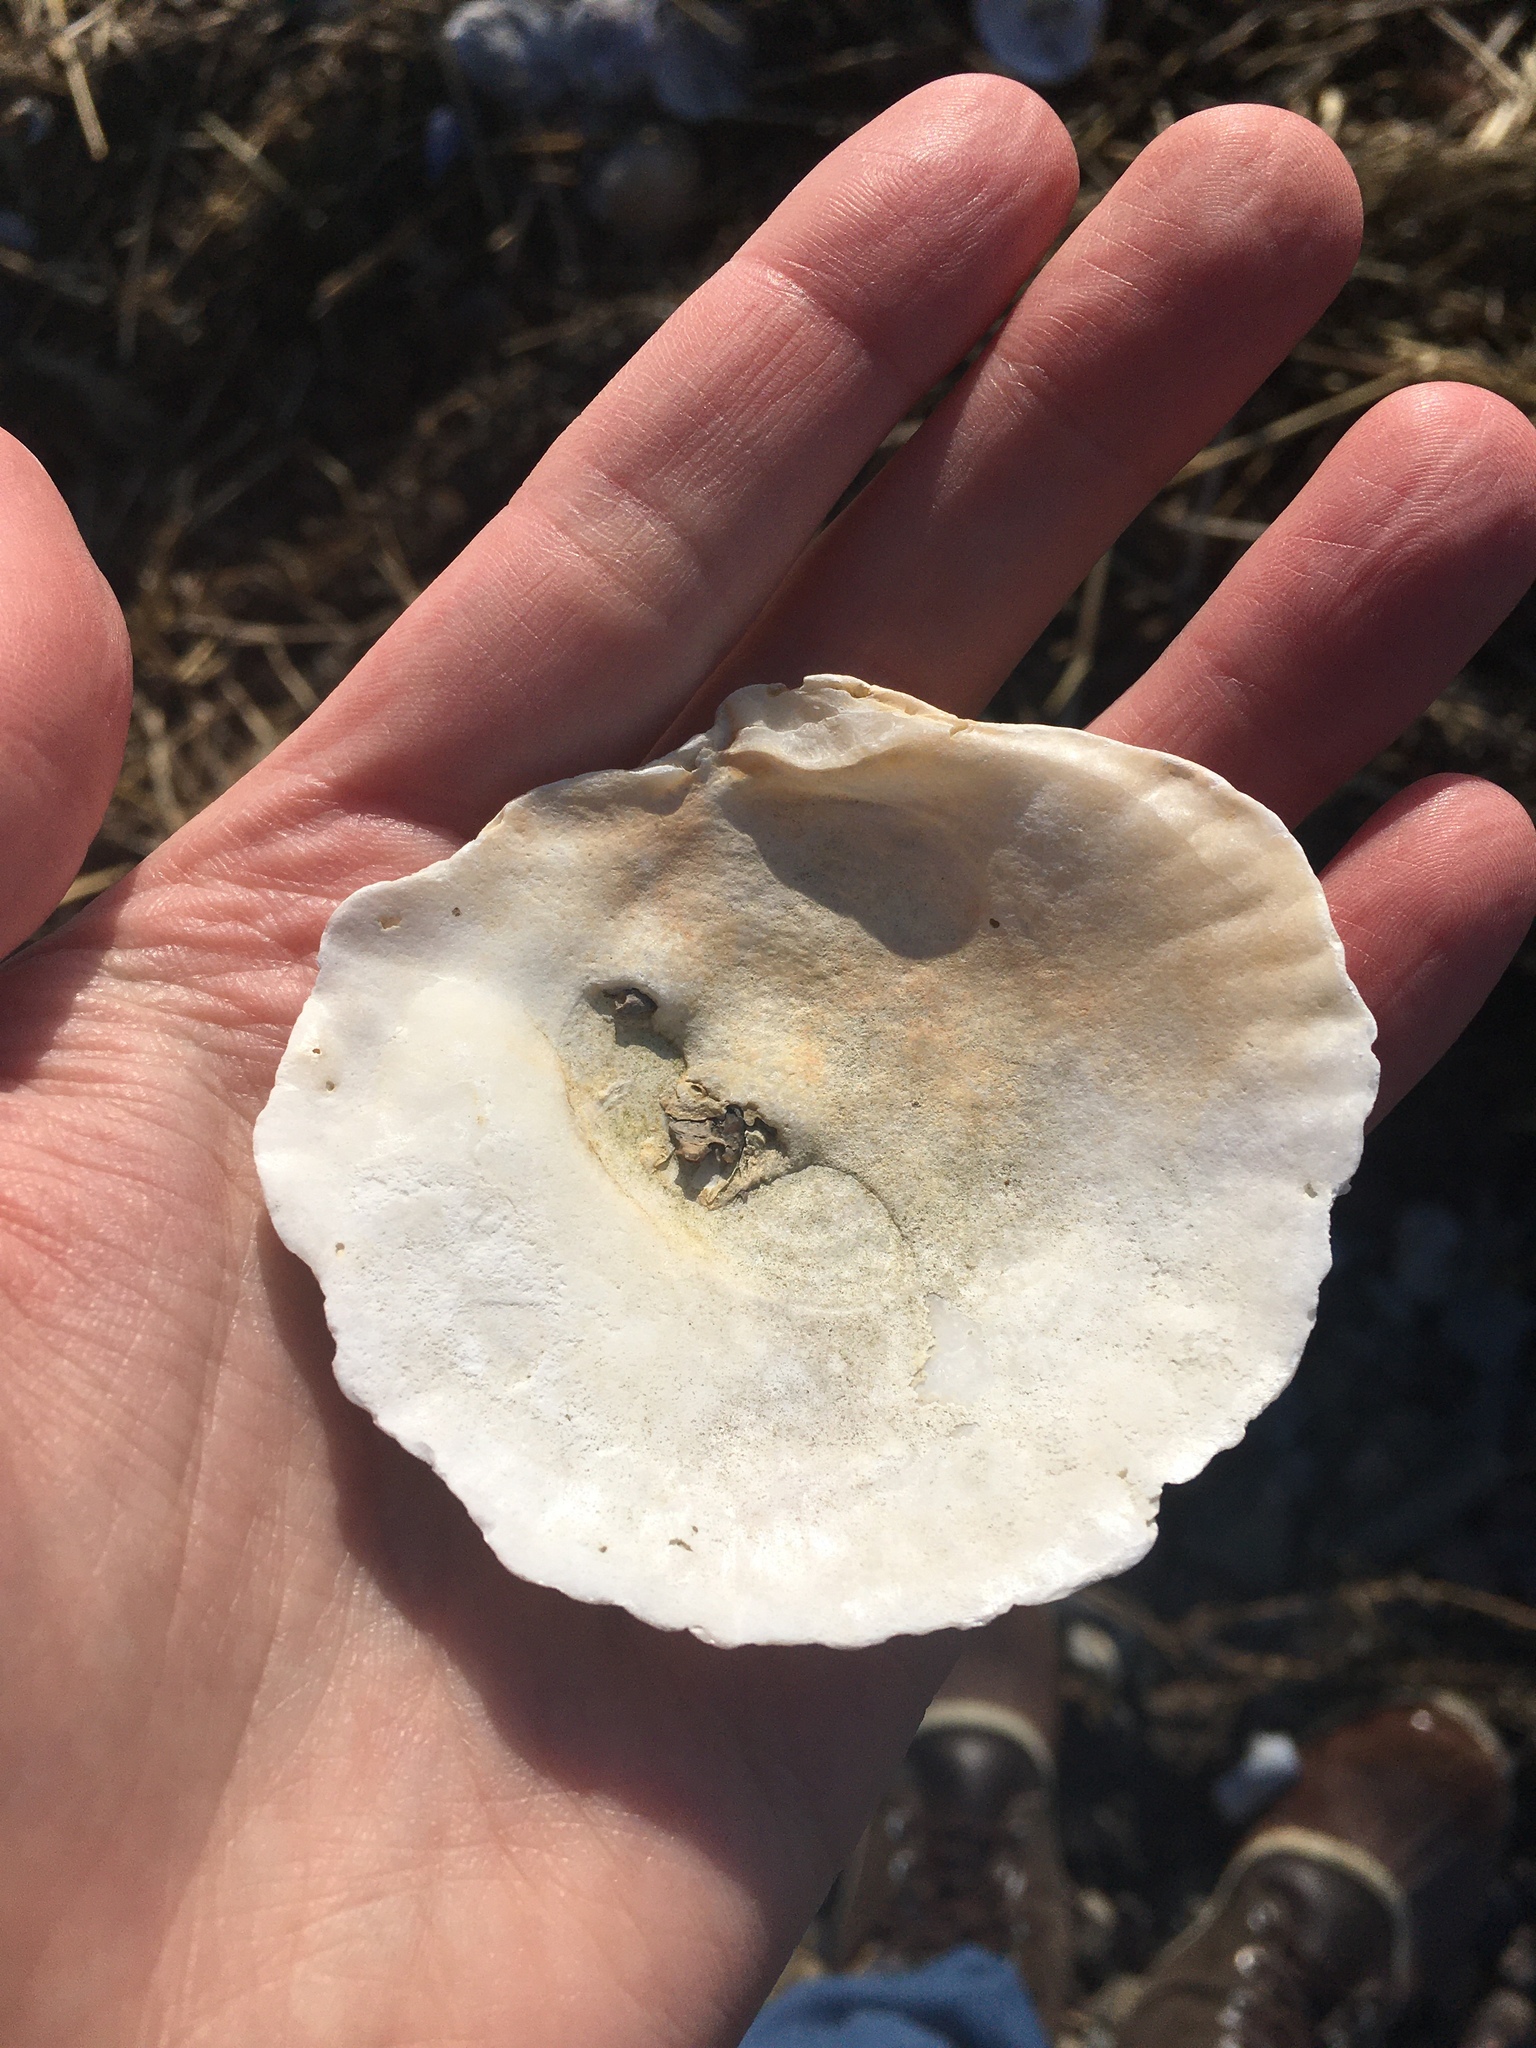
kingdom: Animalia
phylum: Mollusca
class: Bivalvia
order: Ostreida
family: Ostreidae
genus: Ostrea
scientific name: Ostrea edulis
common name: Flat oyster
